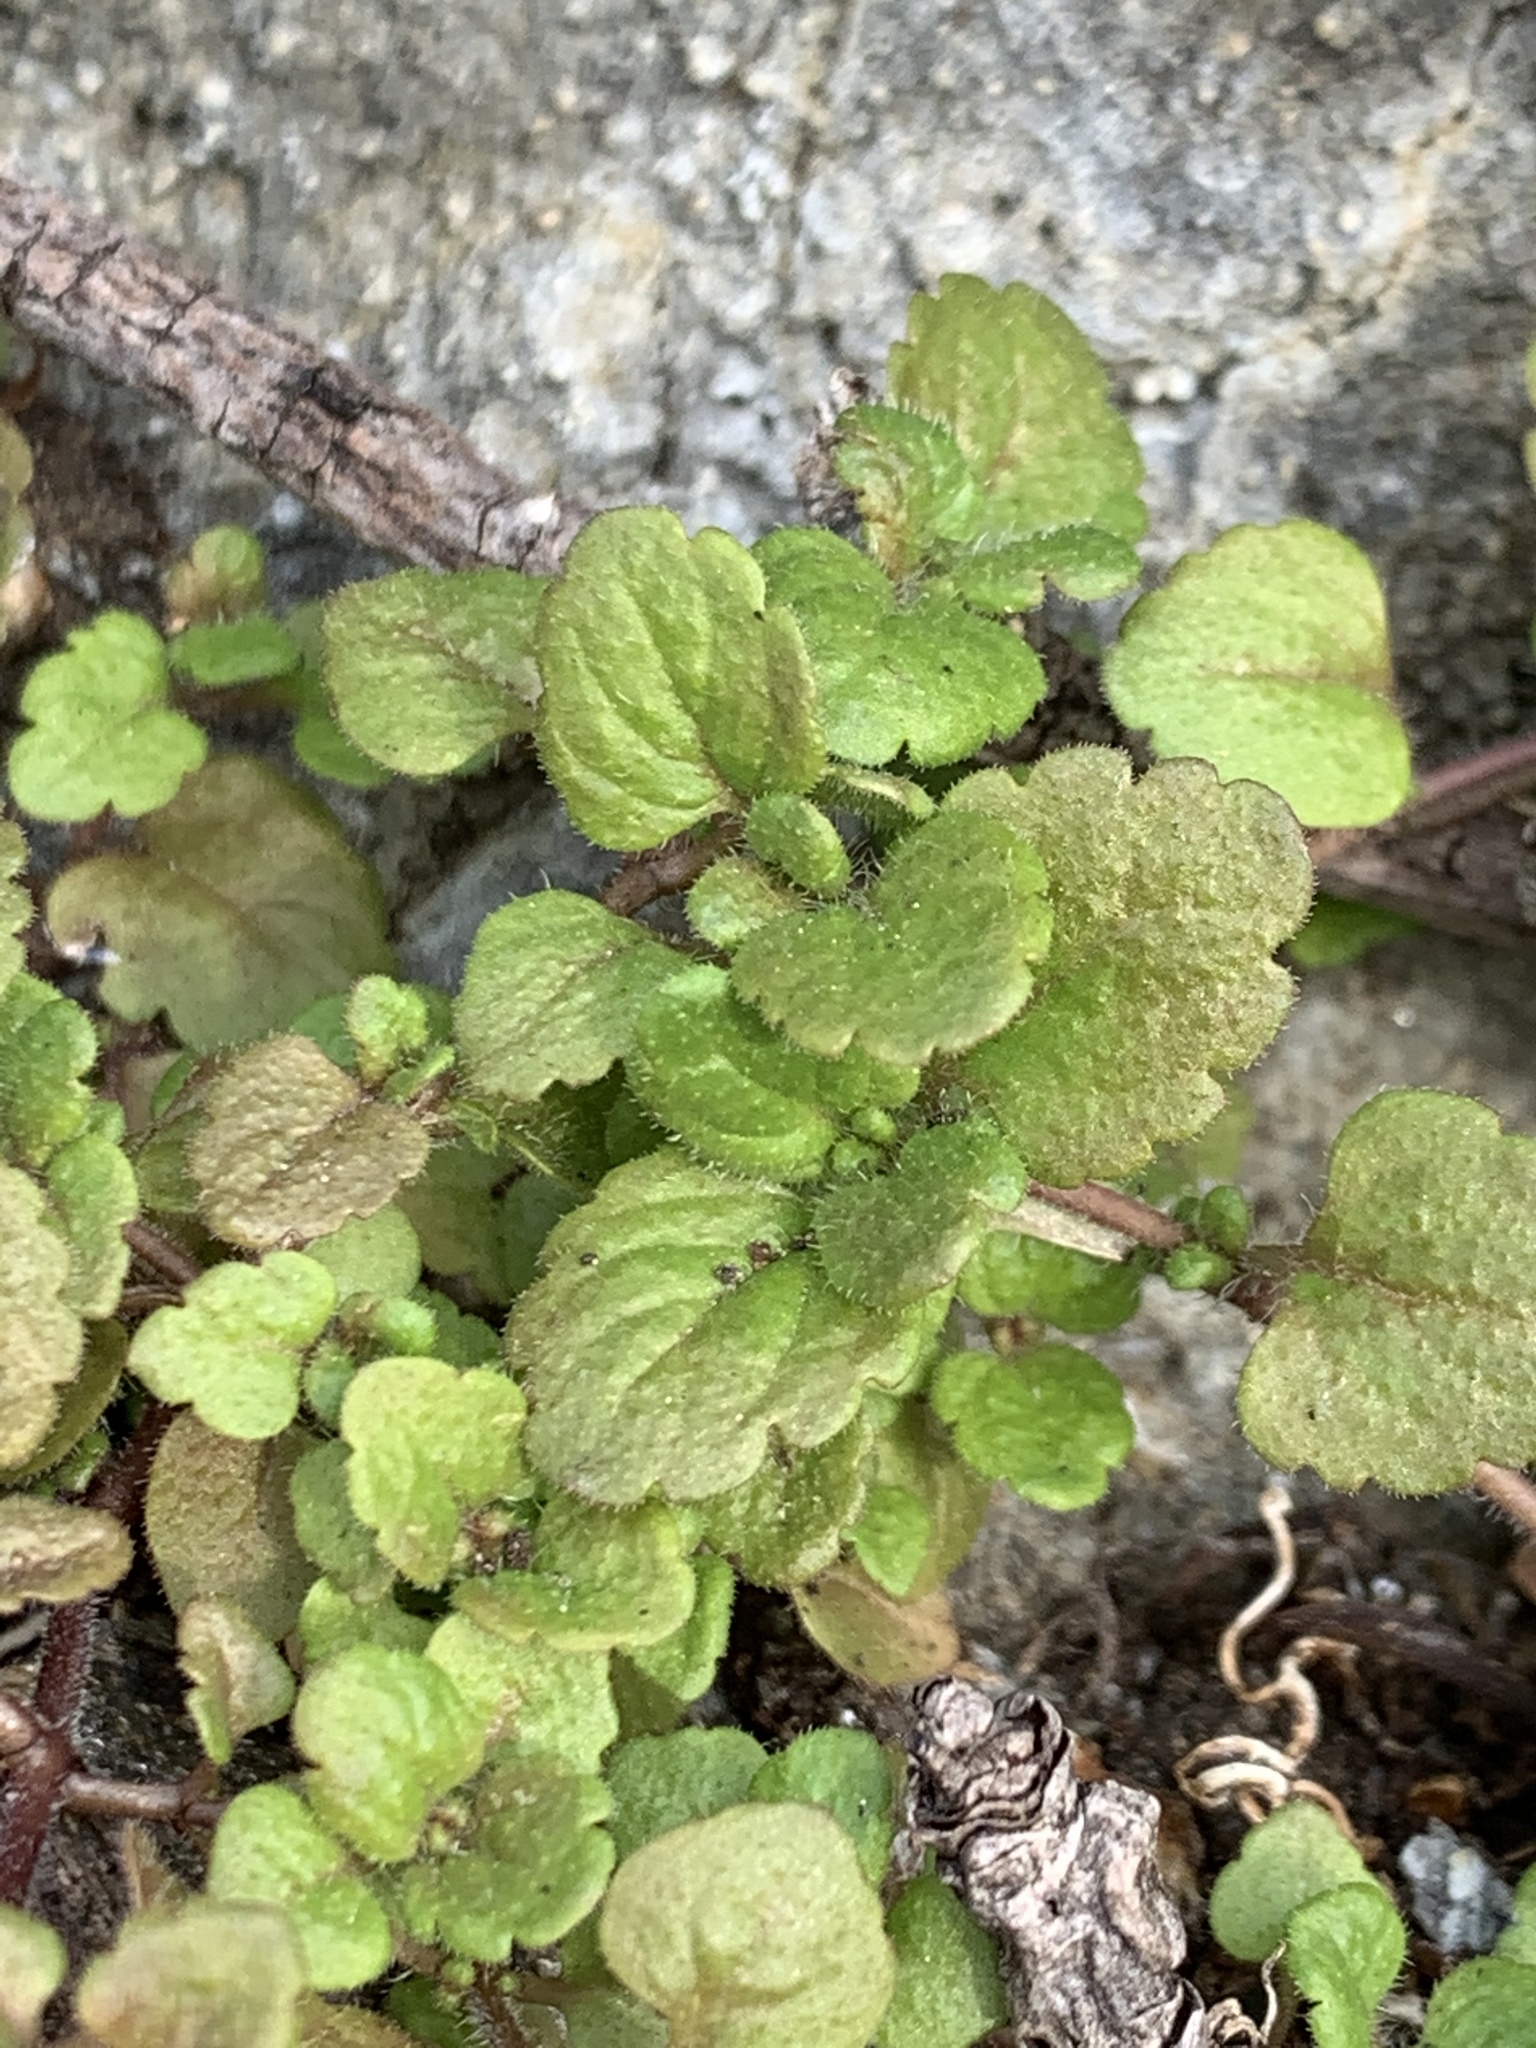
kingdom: Plantae
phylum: Tracheophyta
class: Magnoliopsida
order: Lamiales
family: Plantaginaceae
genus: Veronica
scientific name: Veronica persica
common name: Common field-speedwell
